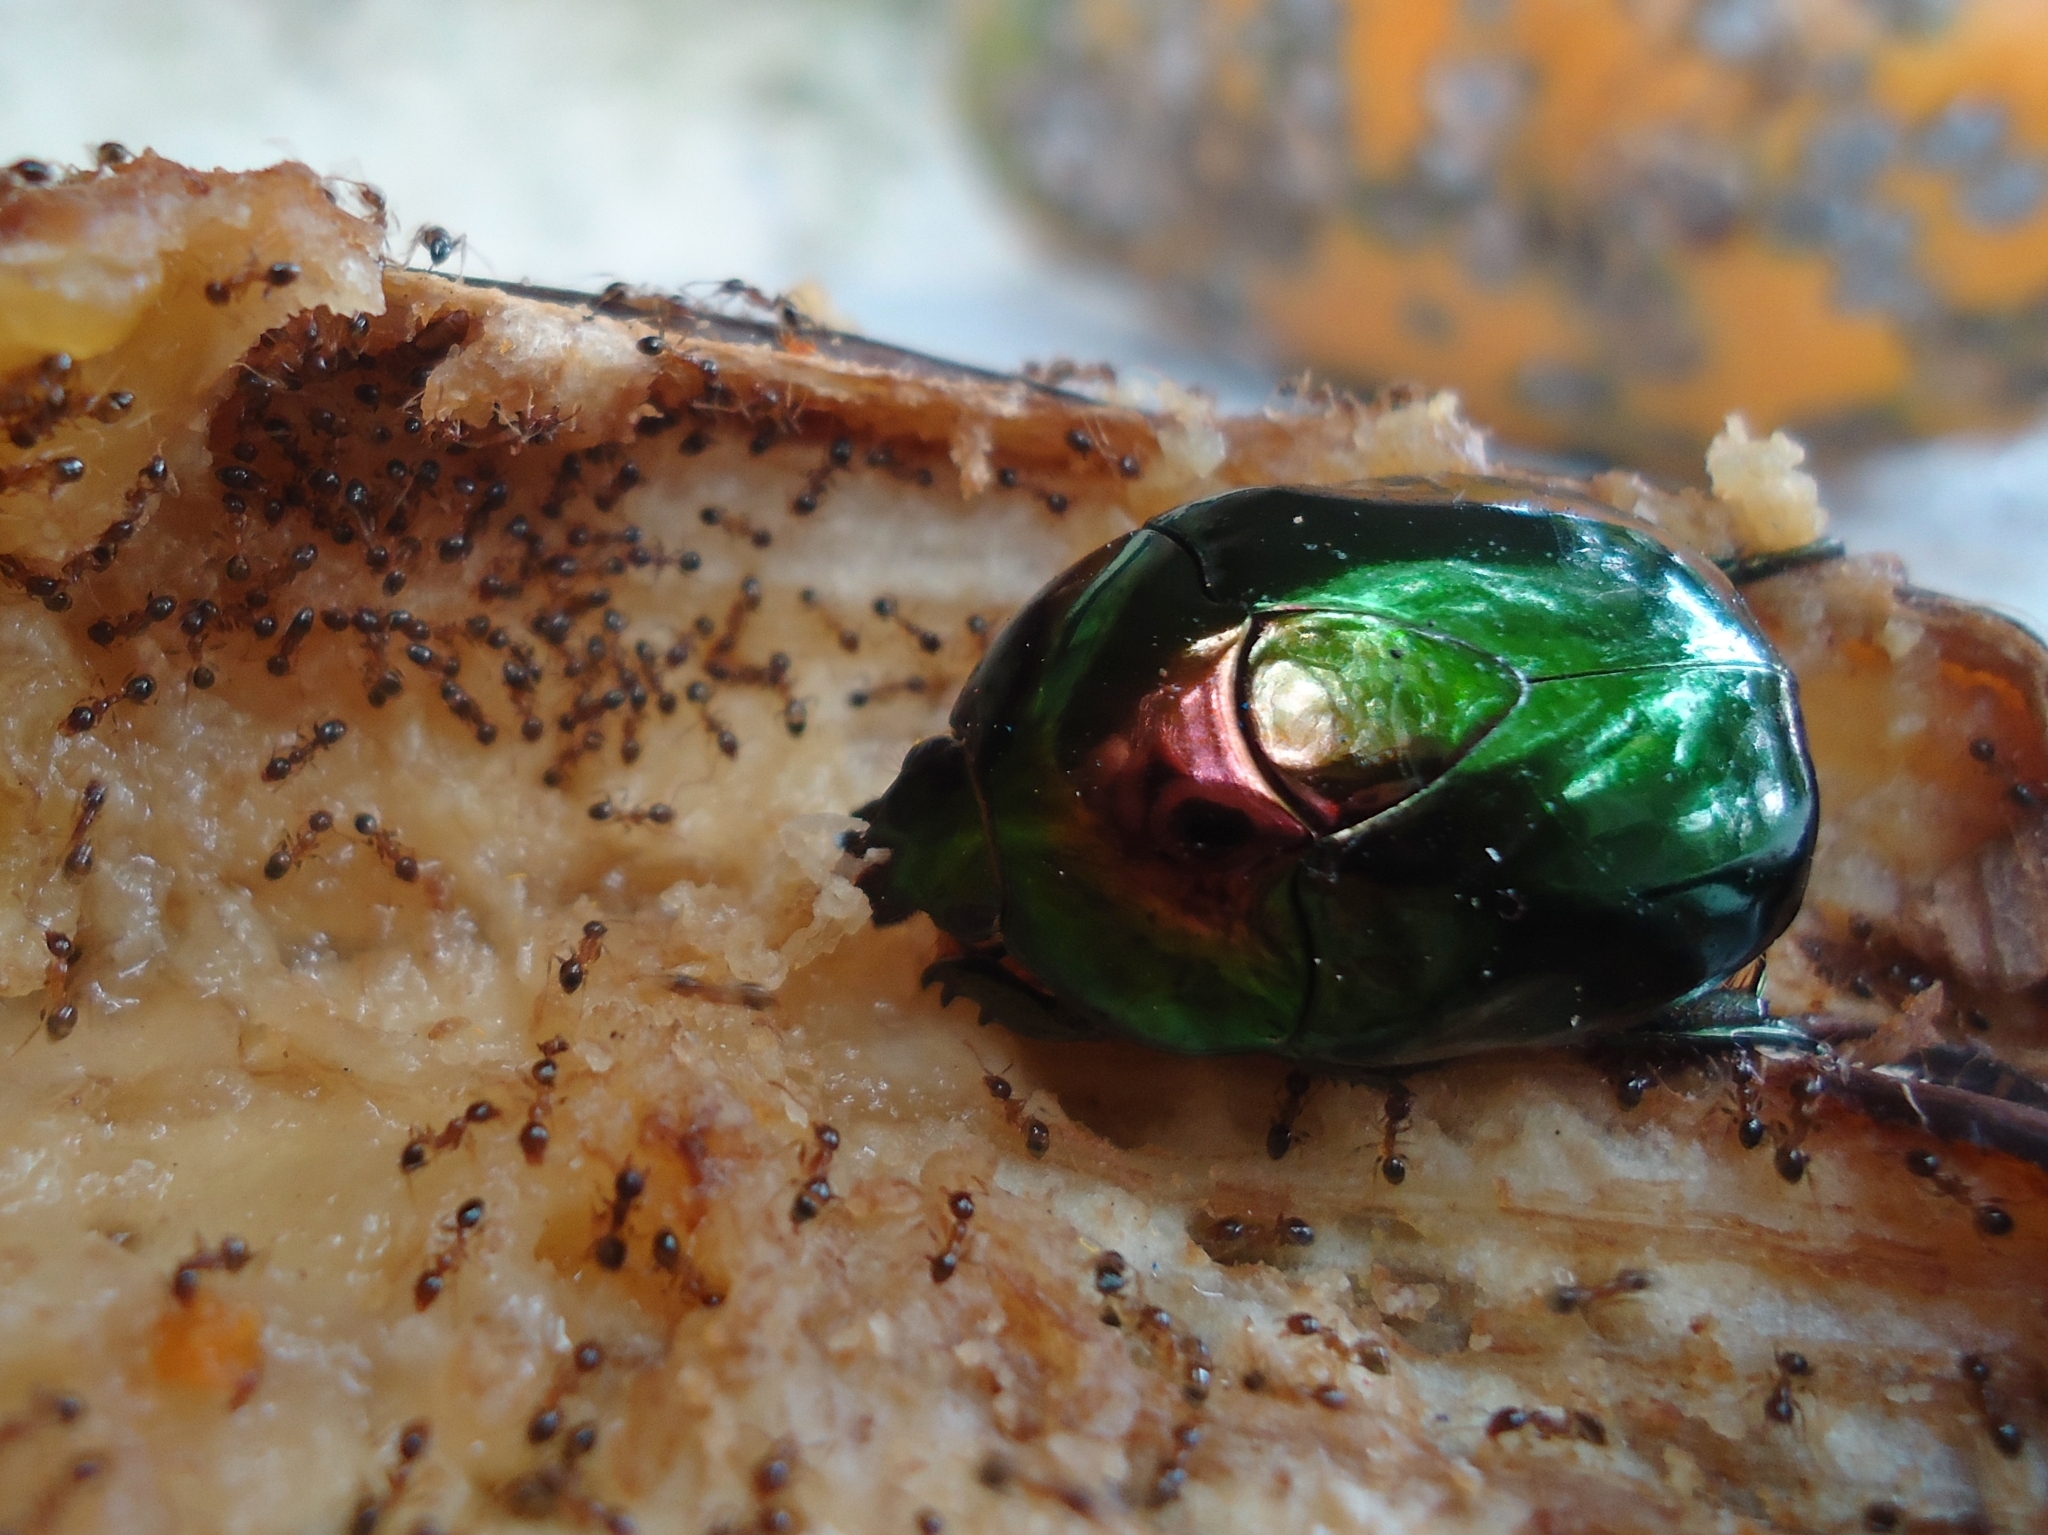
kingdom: Animalia
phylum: Arthropoda
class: Insecta
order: Coleoptera
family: Scarabaeidae
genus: Lagochile
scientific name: Lagochile emarginata
